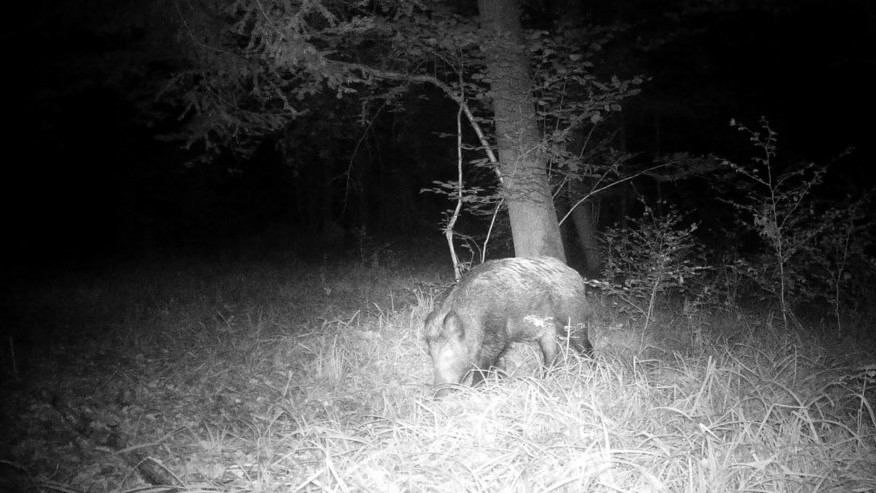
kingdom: Animalia
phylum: Chordata
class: Mammalia
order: Artiodactyla
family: Suidae
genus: Sus
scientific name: Sus scrofa
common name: Wild boar
